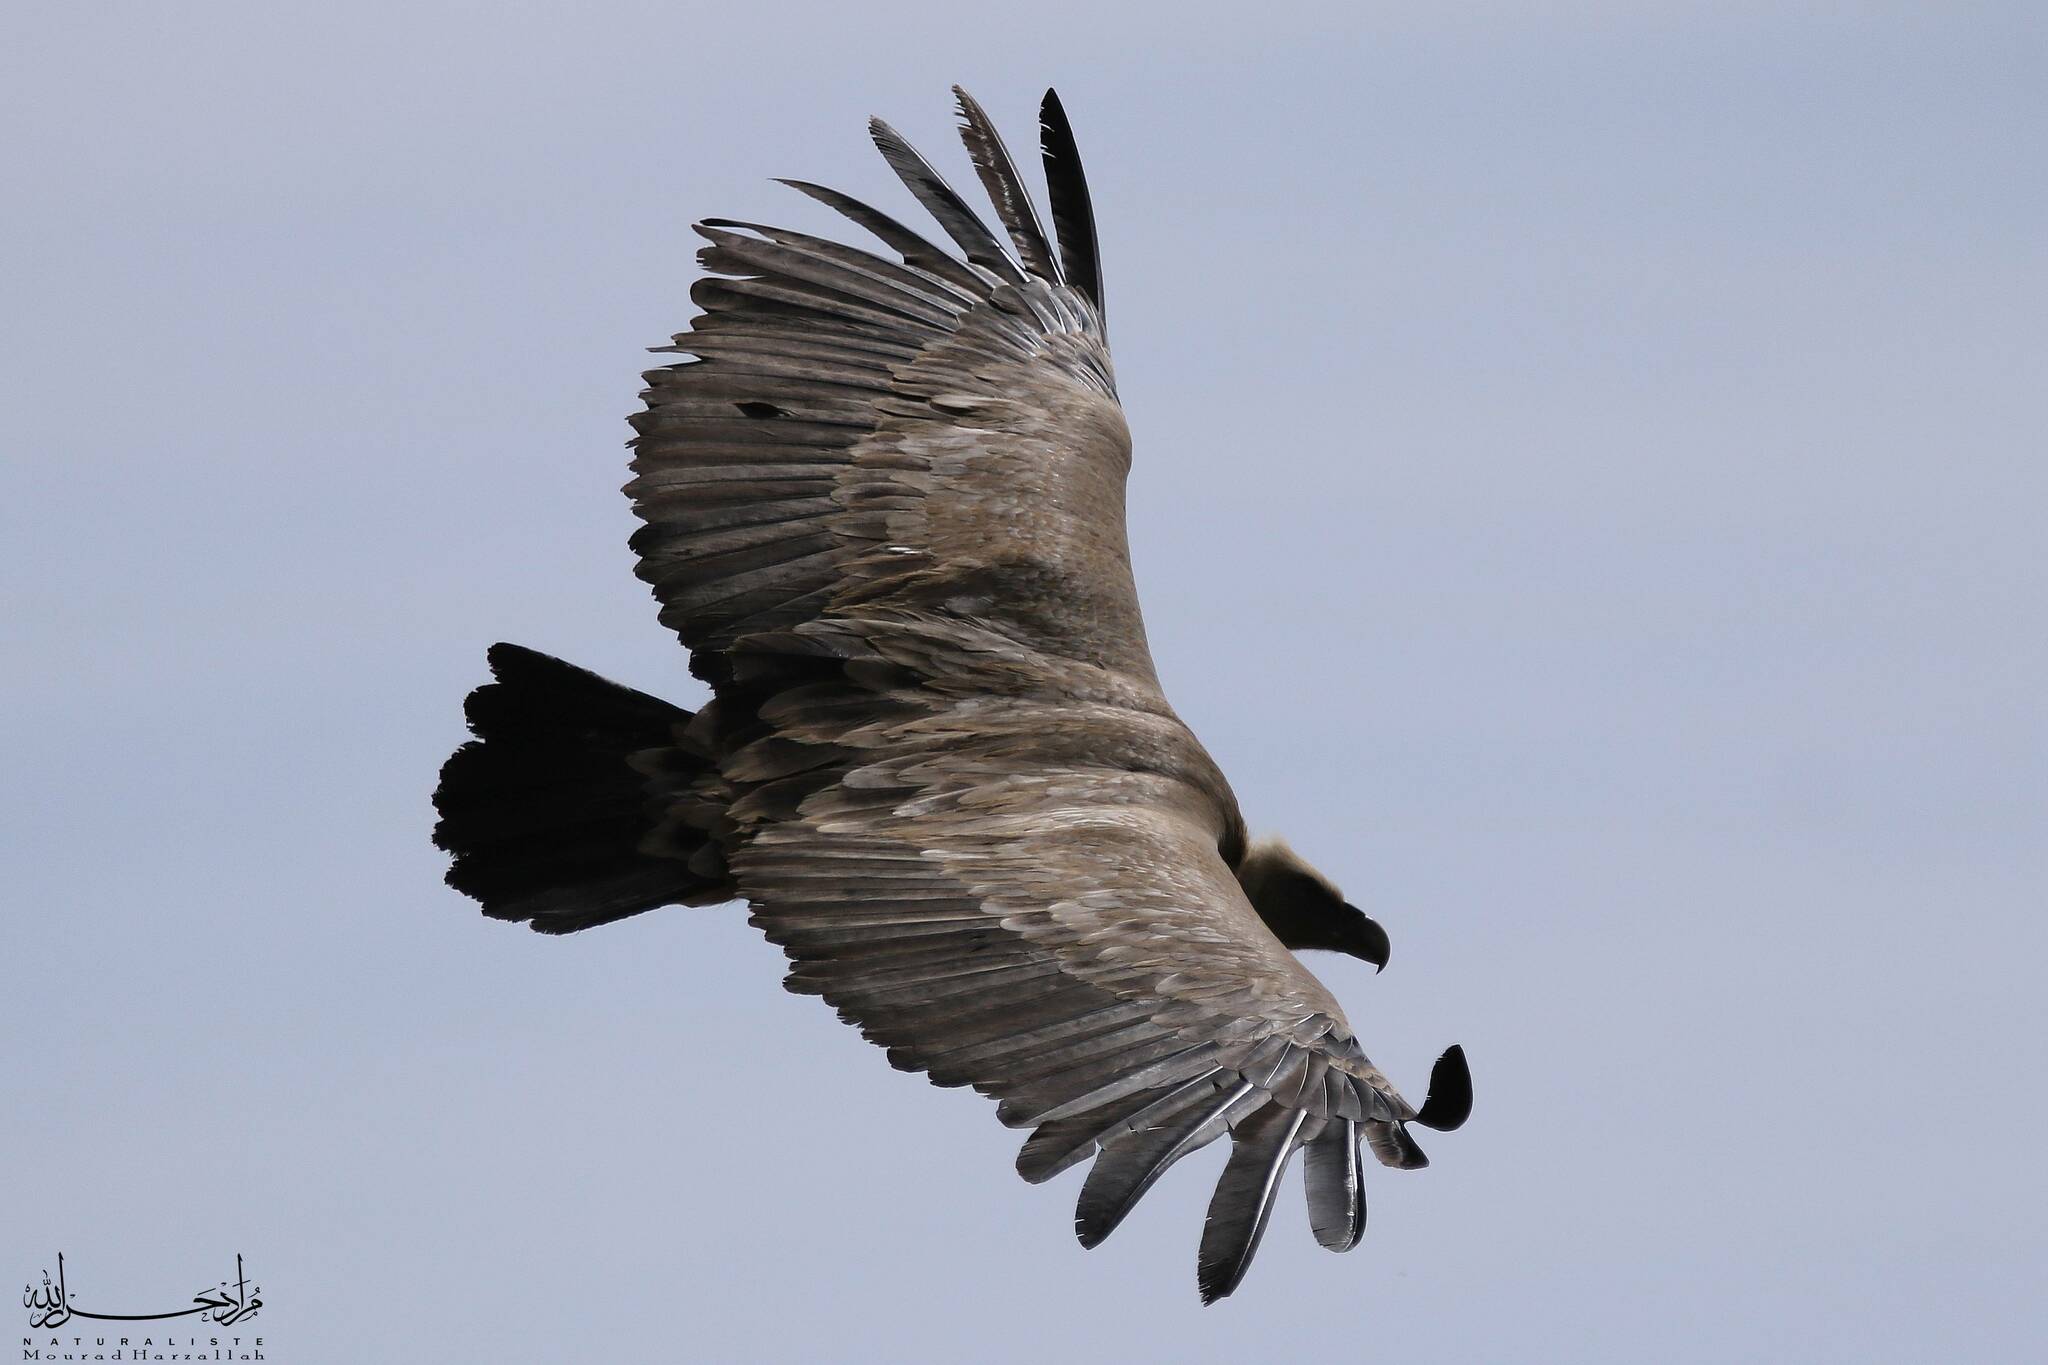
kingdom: Animalia
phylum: Chordata
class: Aves
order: Accipitriformes
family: Accipitridae
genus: Gyps
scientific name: Gyps fulvus
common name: Griffon vulture
